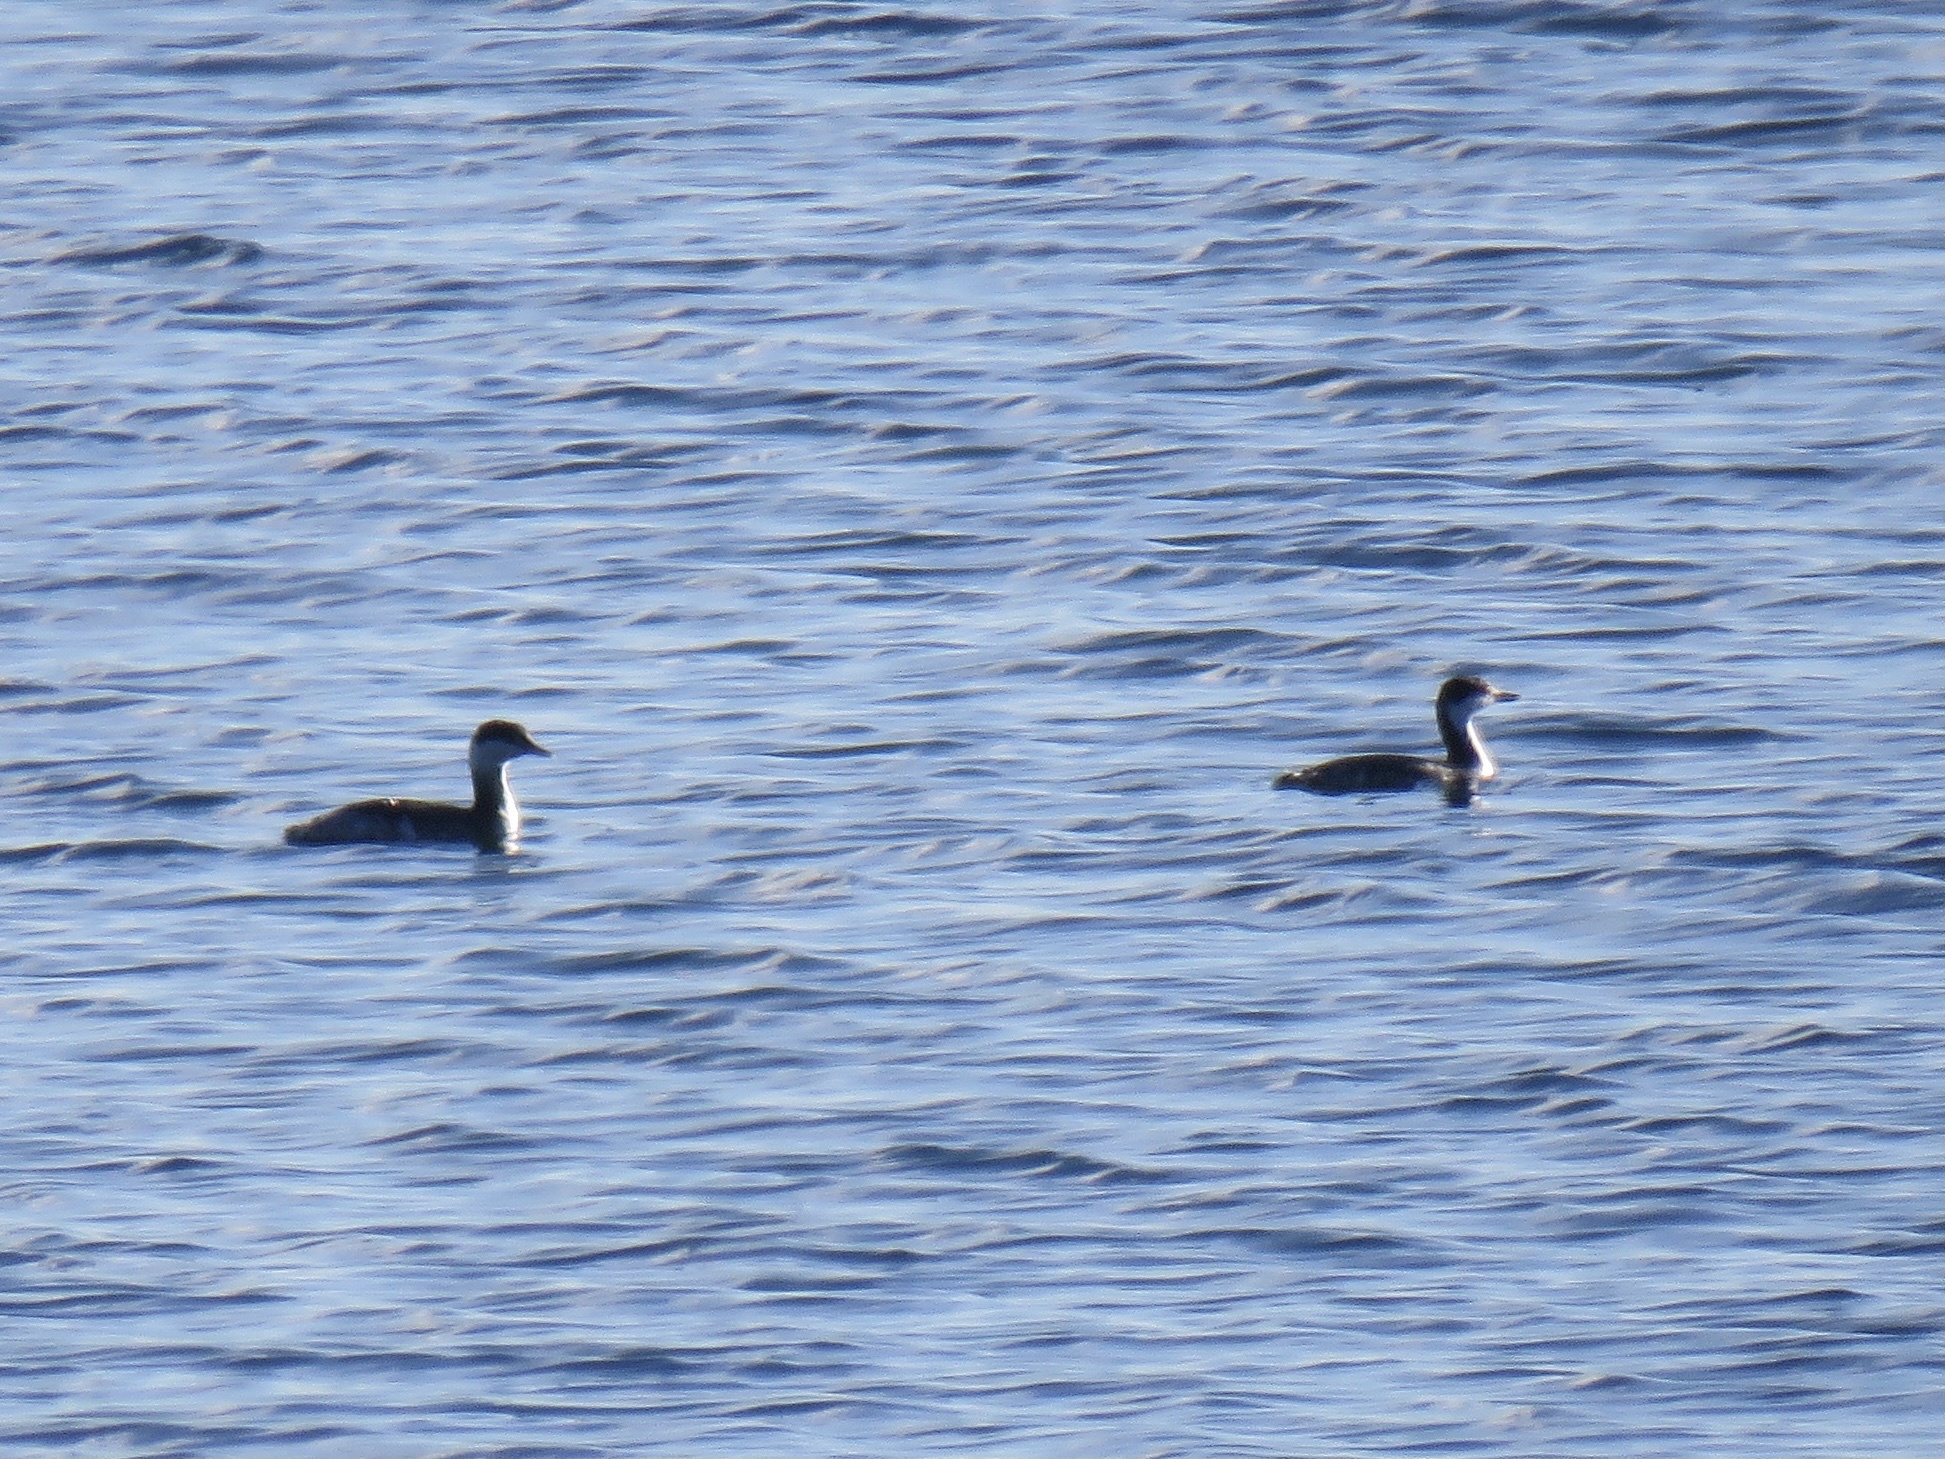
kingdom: Animalia
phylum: Chordata
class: Aves
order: Podicipediformes
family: Podicipedidae
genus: Podiceps
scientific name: Podiceps auritus
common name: Horned grebe
